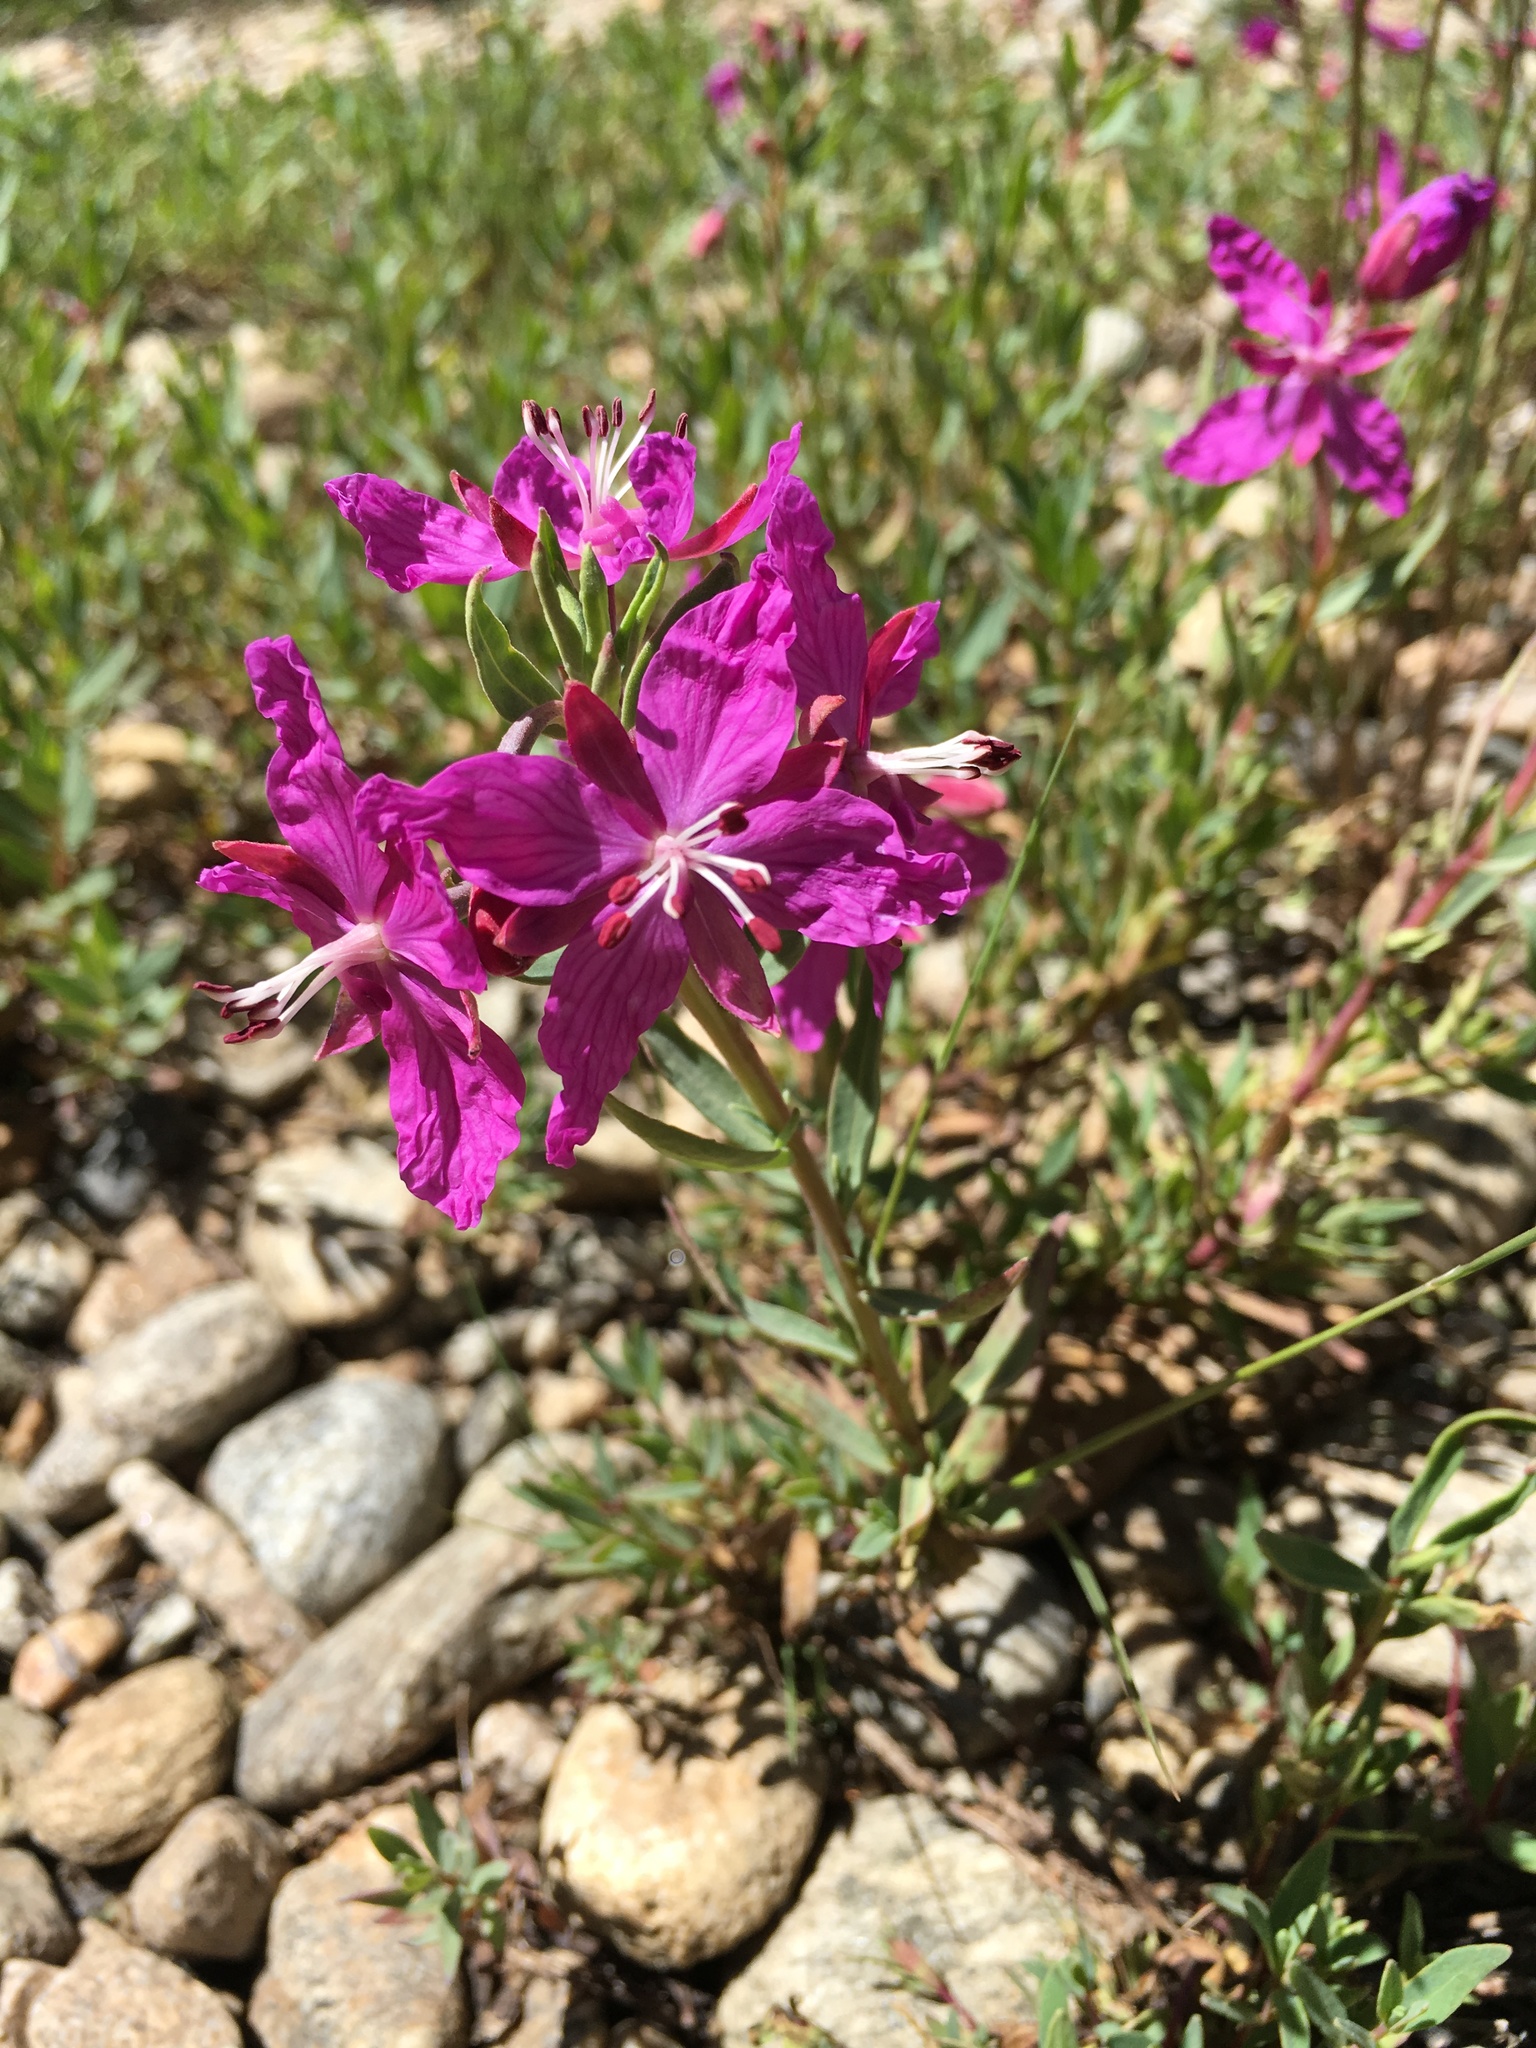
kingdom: Plantae
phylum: Tracheophyta
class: Magnoliopsida
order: Myrtales
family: Onagraceae
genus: Chamaenerion
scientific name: Chamaenerion latifolium
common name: Dwarf fireweed
